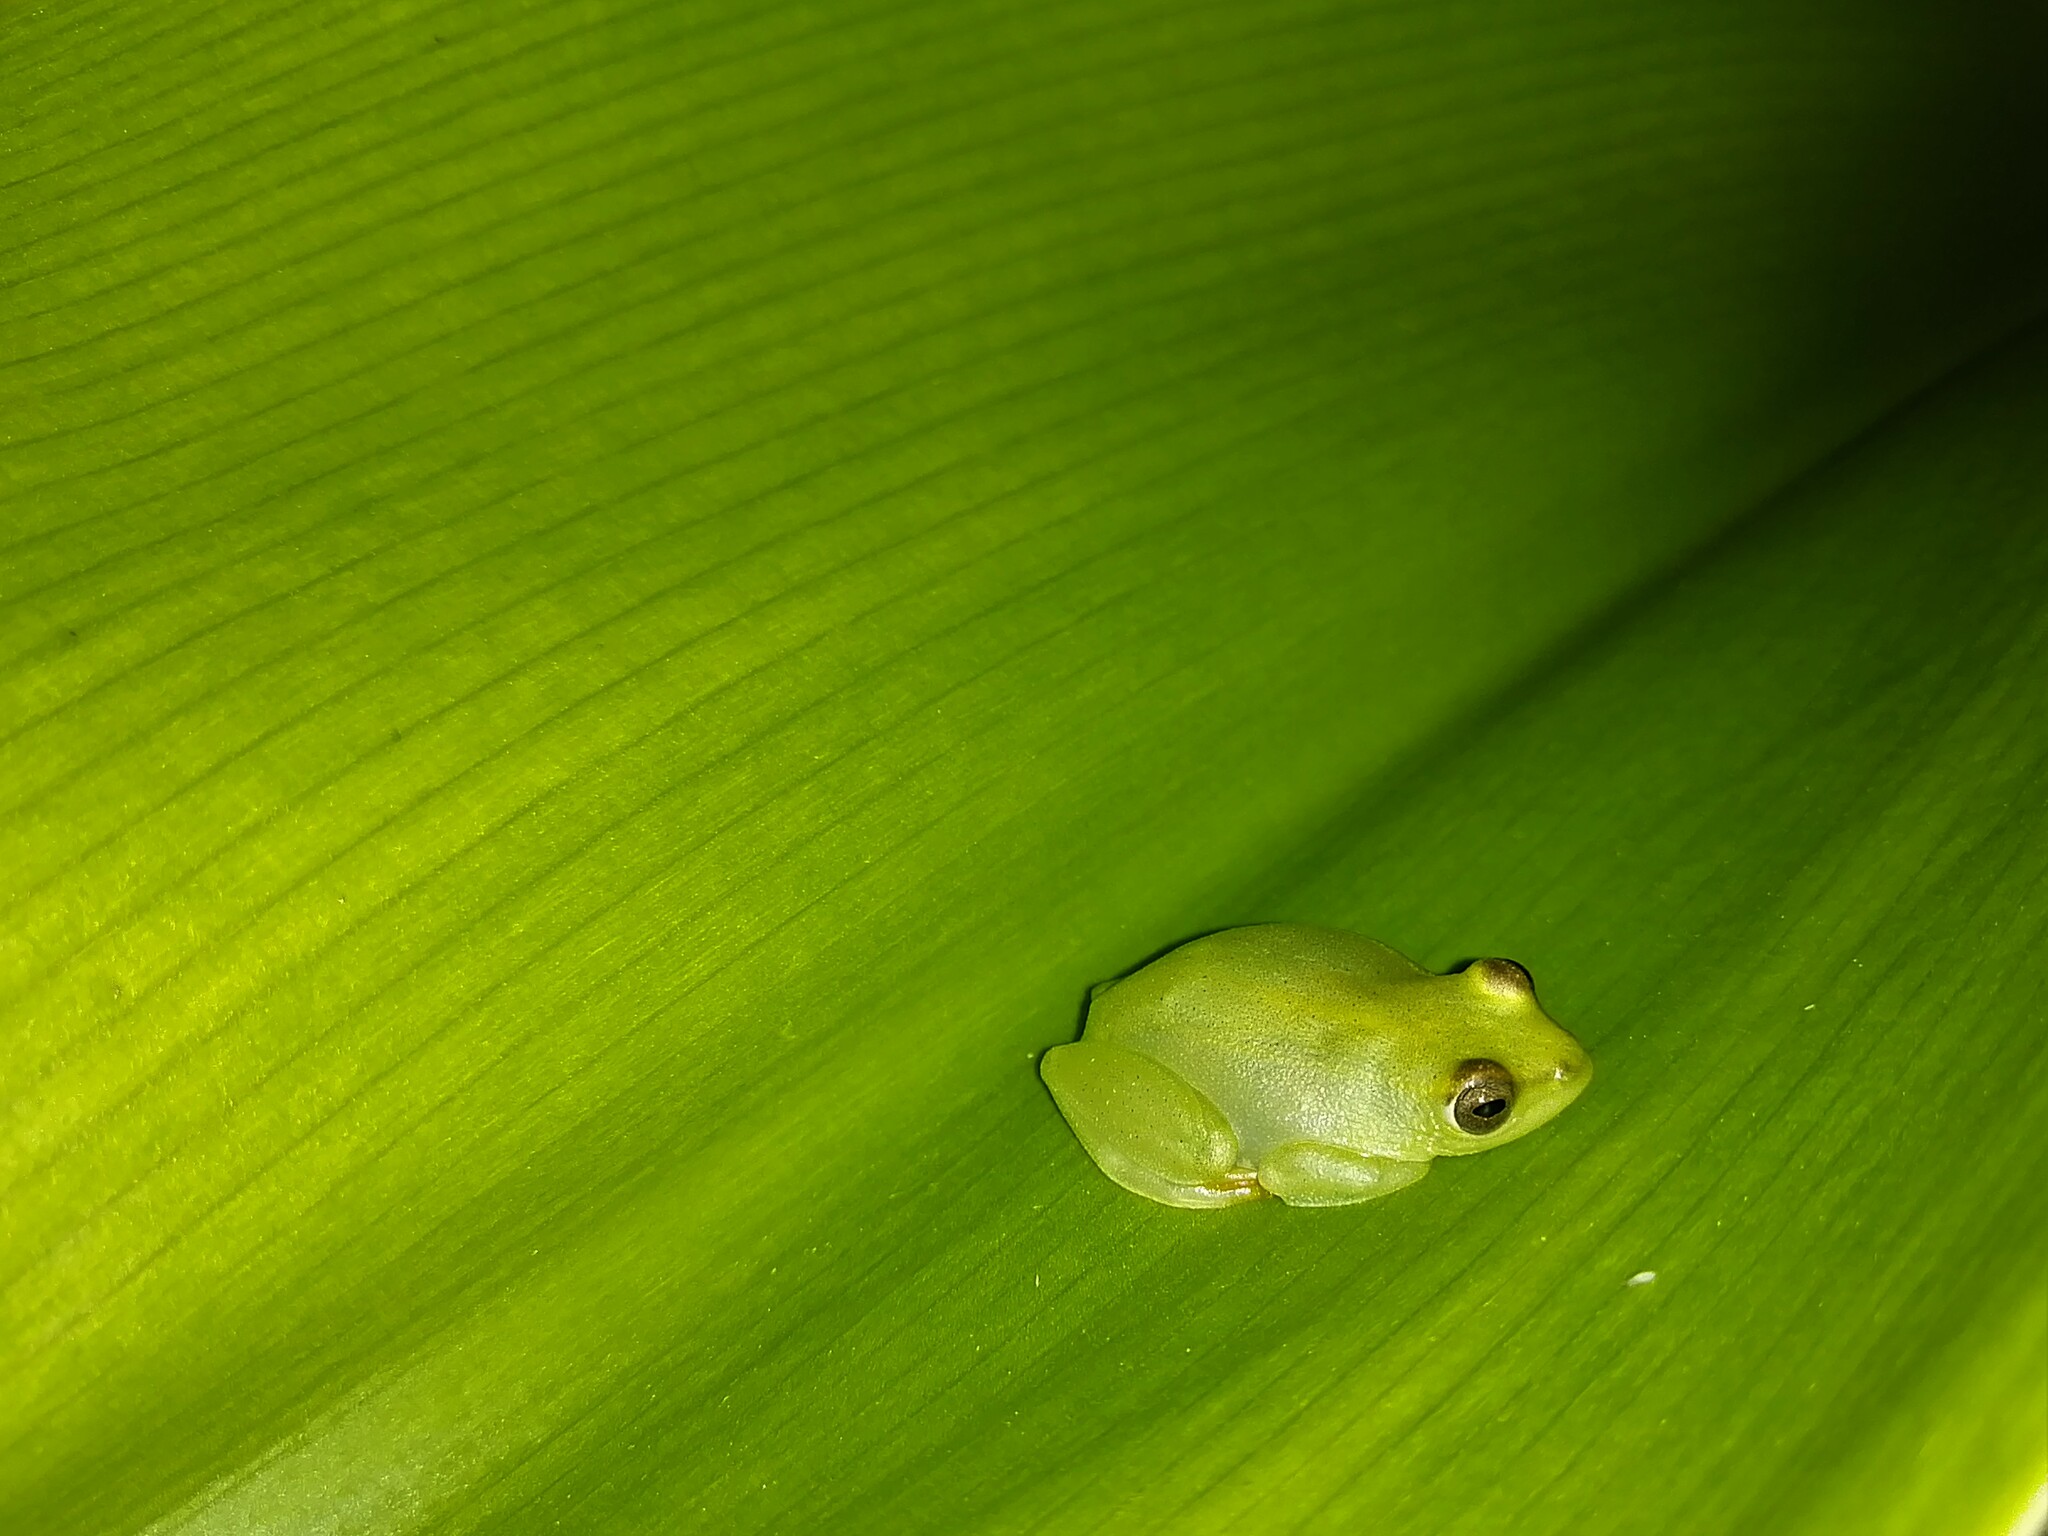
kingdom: Animalia
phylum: Chordata
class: Amphibia
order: Anura
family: Hyperoliidae
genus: Hyperolius
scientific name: Hyperolius argus
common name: Argus reed frog
